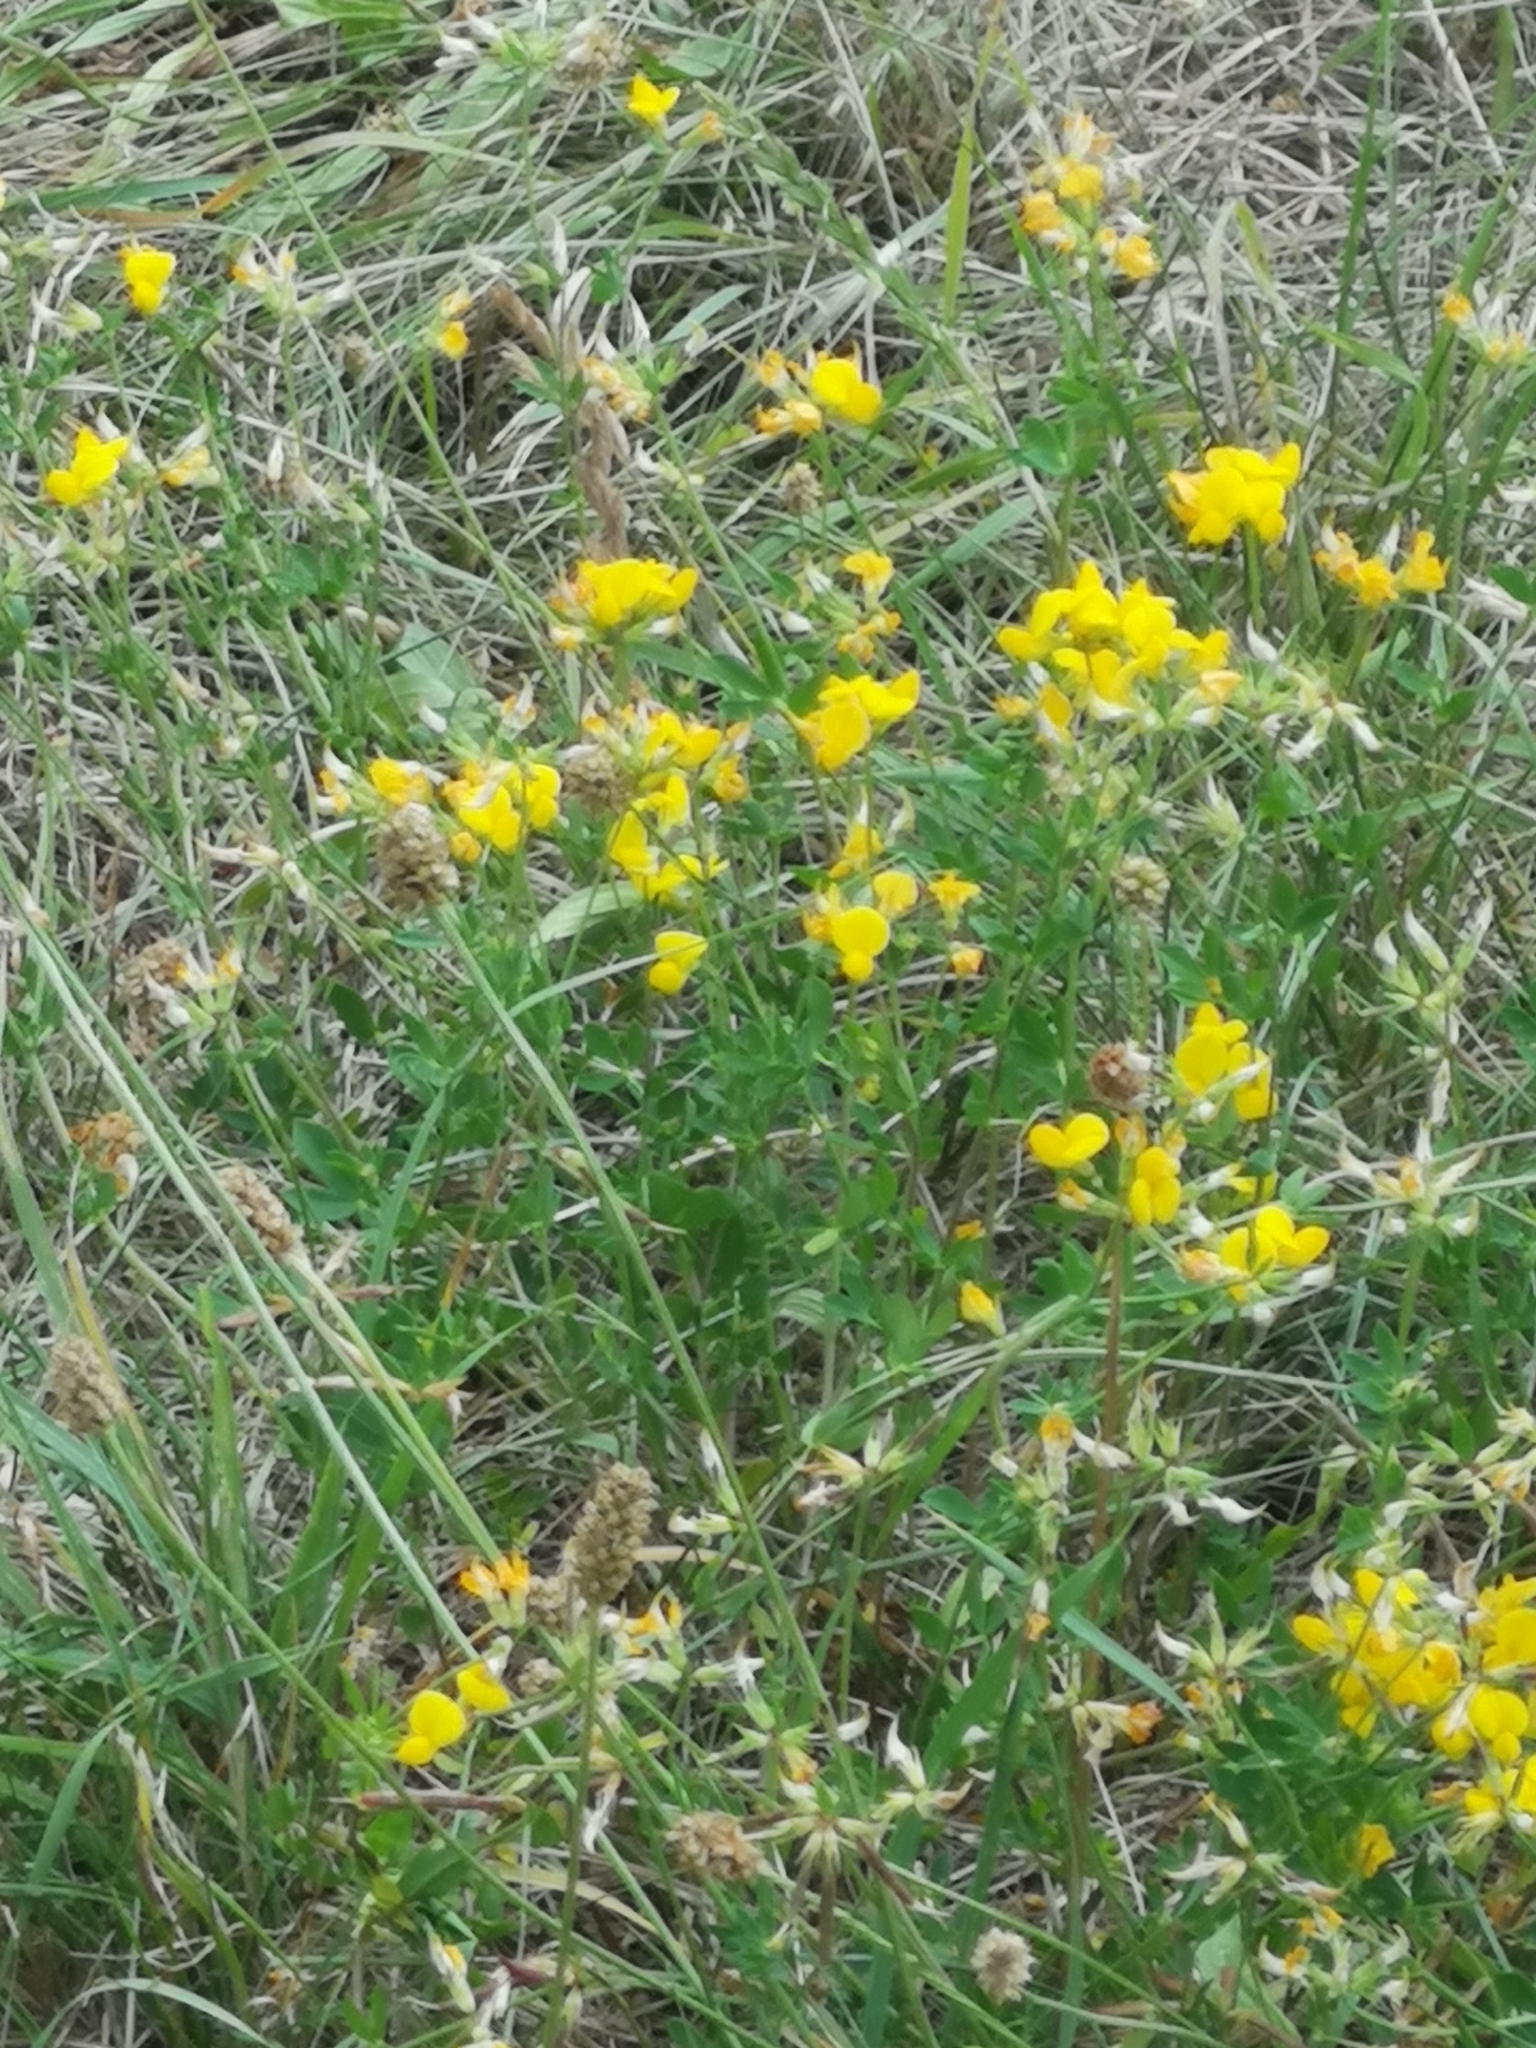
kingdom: Plantae
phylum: Tracheophyta
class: Magnoliopsida
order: Fabales
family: Fabaceae
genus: Lotus
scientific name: Lotus corniculatus
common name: Common bird's-foot-trefoil
